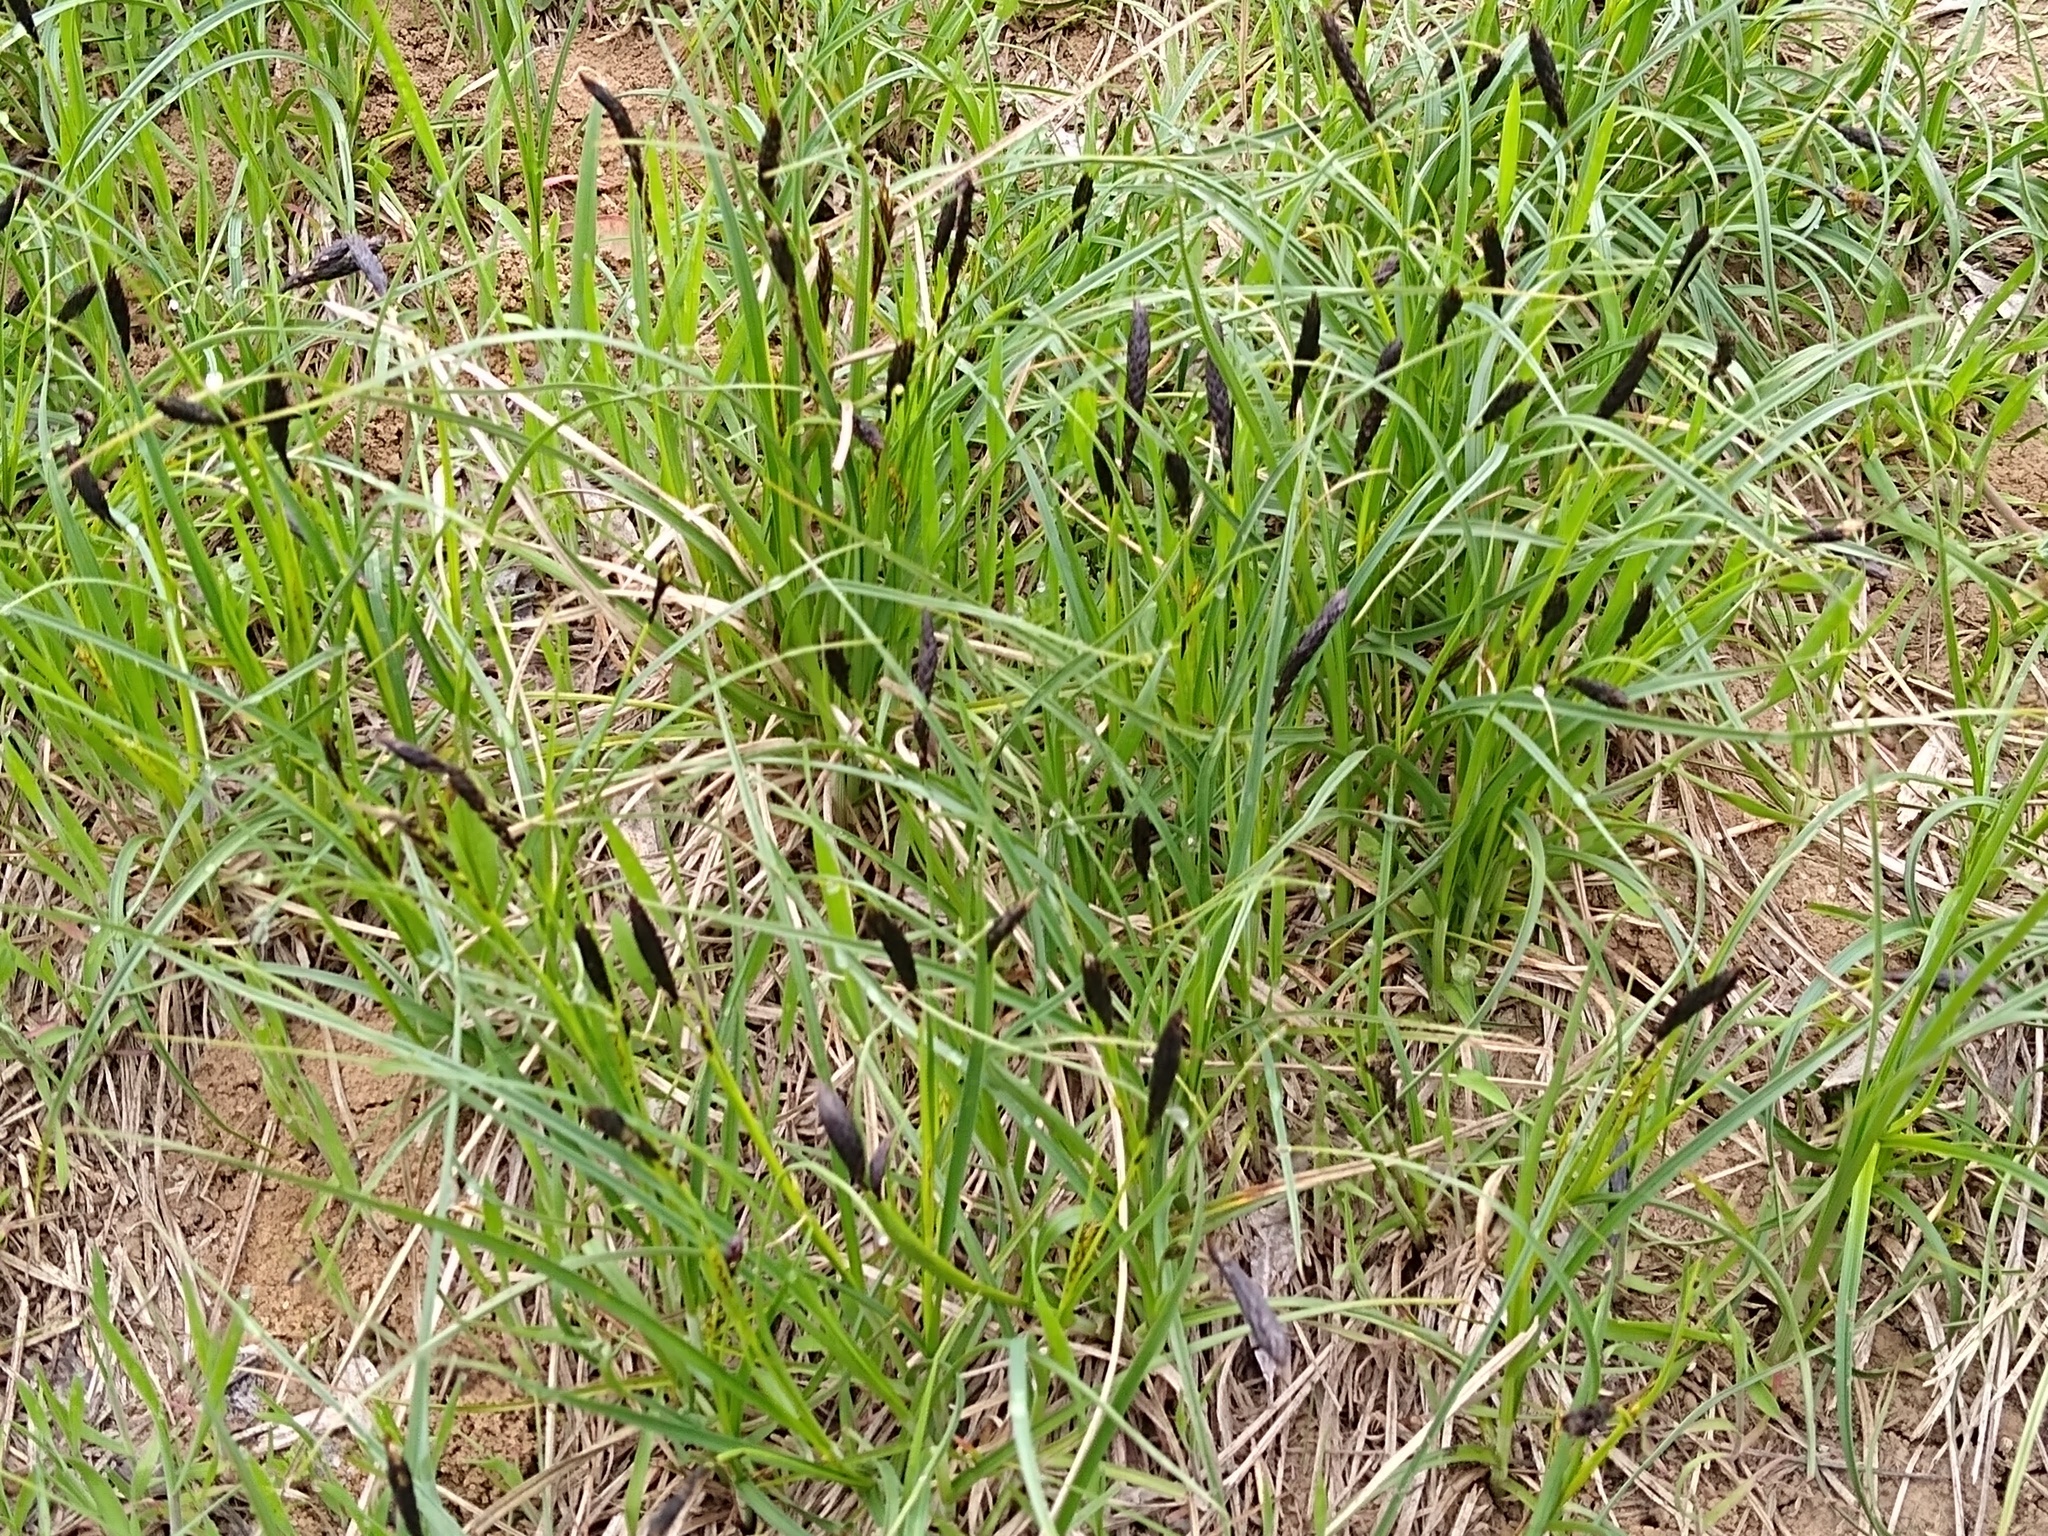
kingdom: Plantae
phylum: Tracheophyta
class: Liliopsida
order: Poales
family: Cyperaceae
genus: Carex
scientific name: Carex melanostachya
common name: Black-spiked sedge
